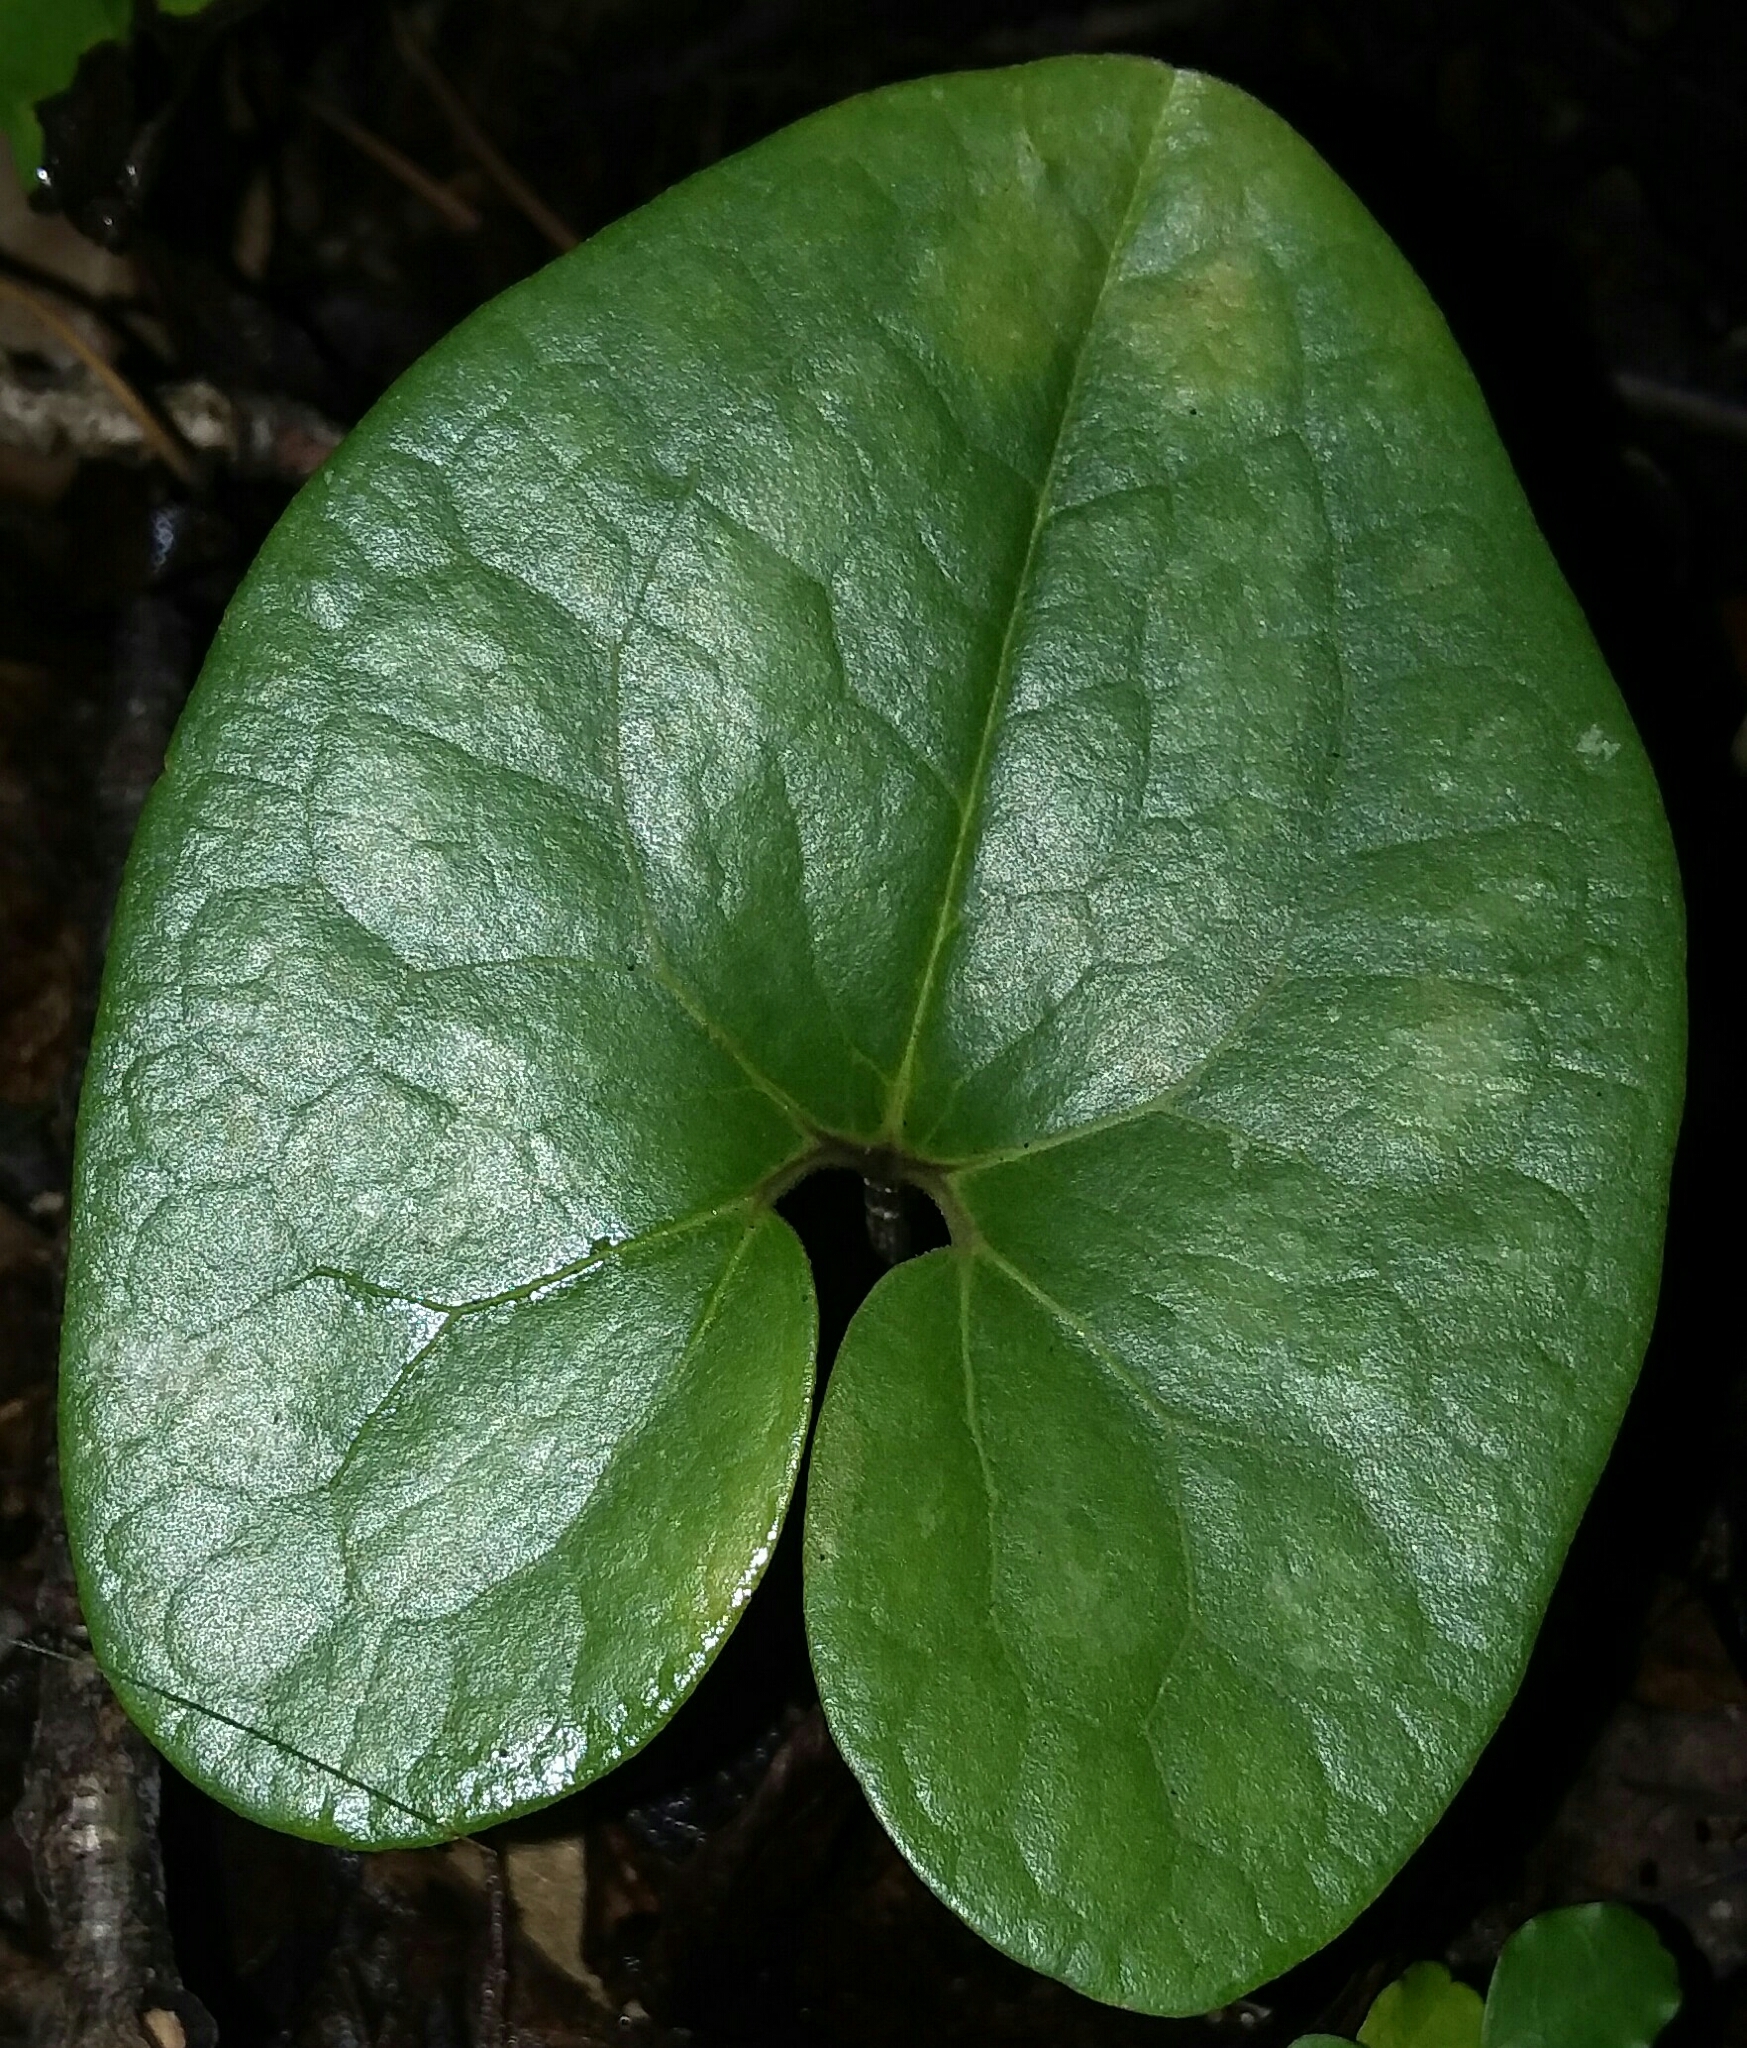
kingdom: Plantae
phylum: Tracheophyta
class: Magnoliopsida
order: Piperales
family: Aristolochiaceae
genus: Hexastylis
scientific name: Hexastylis arifolia
